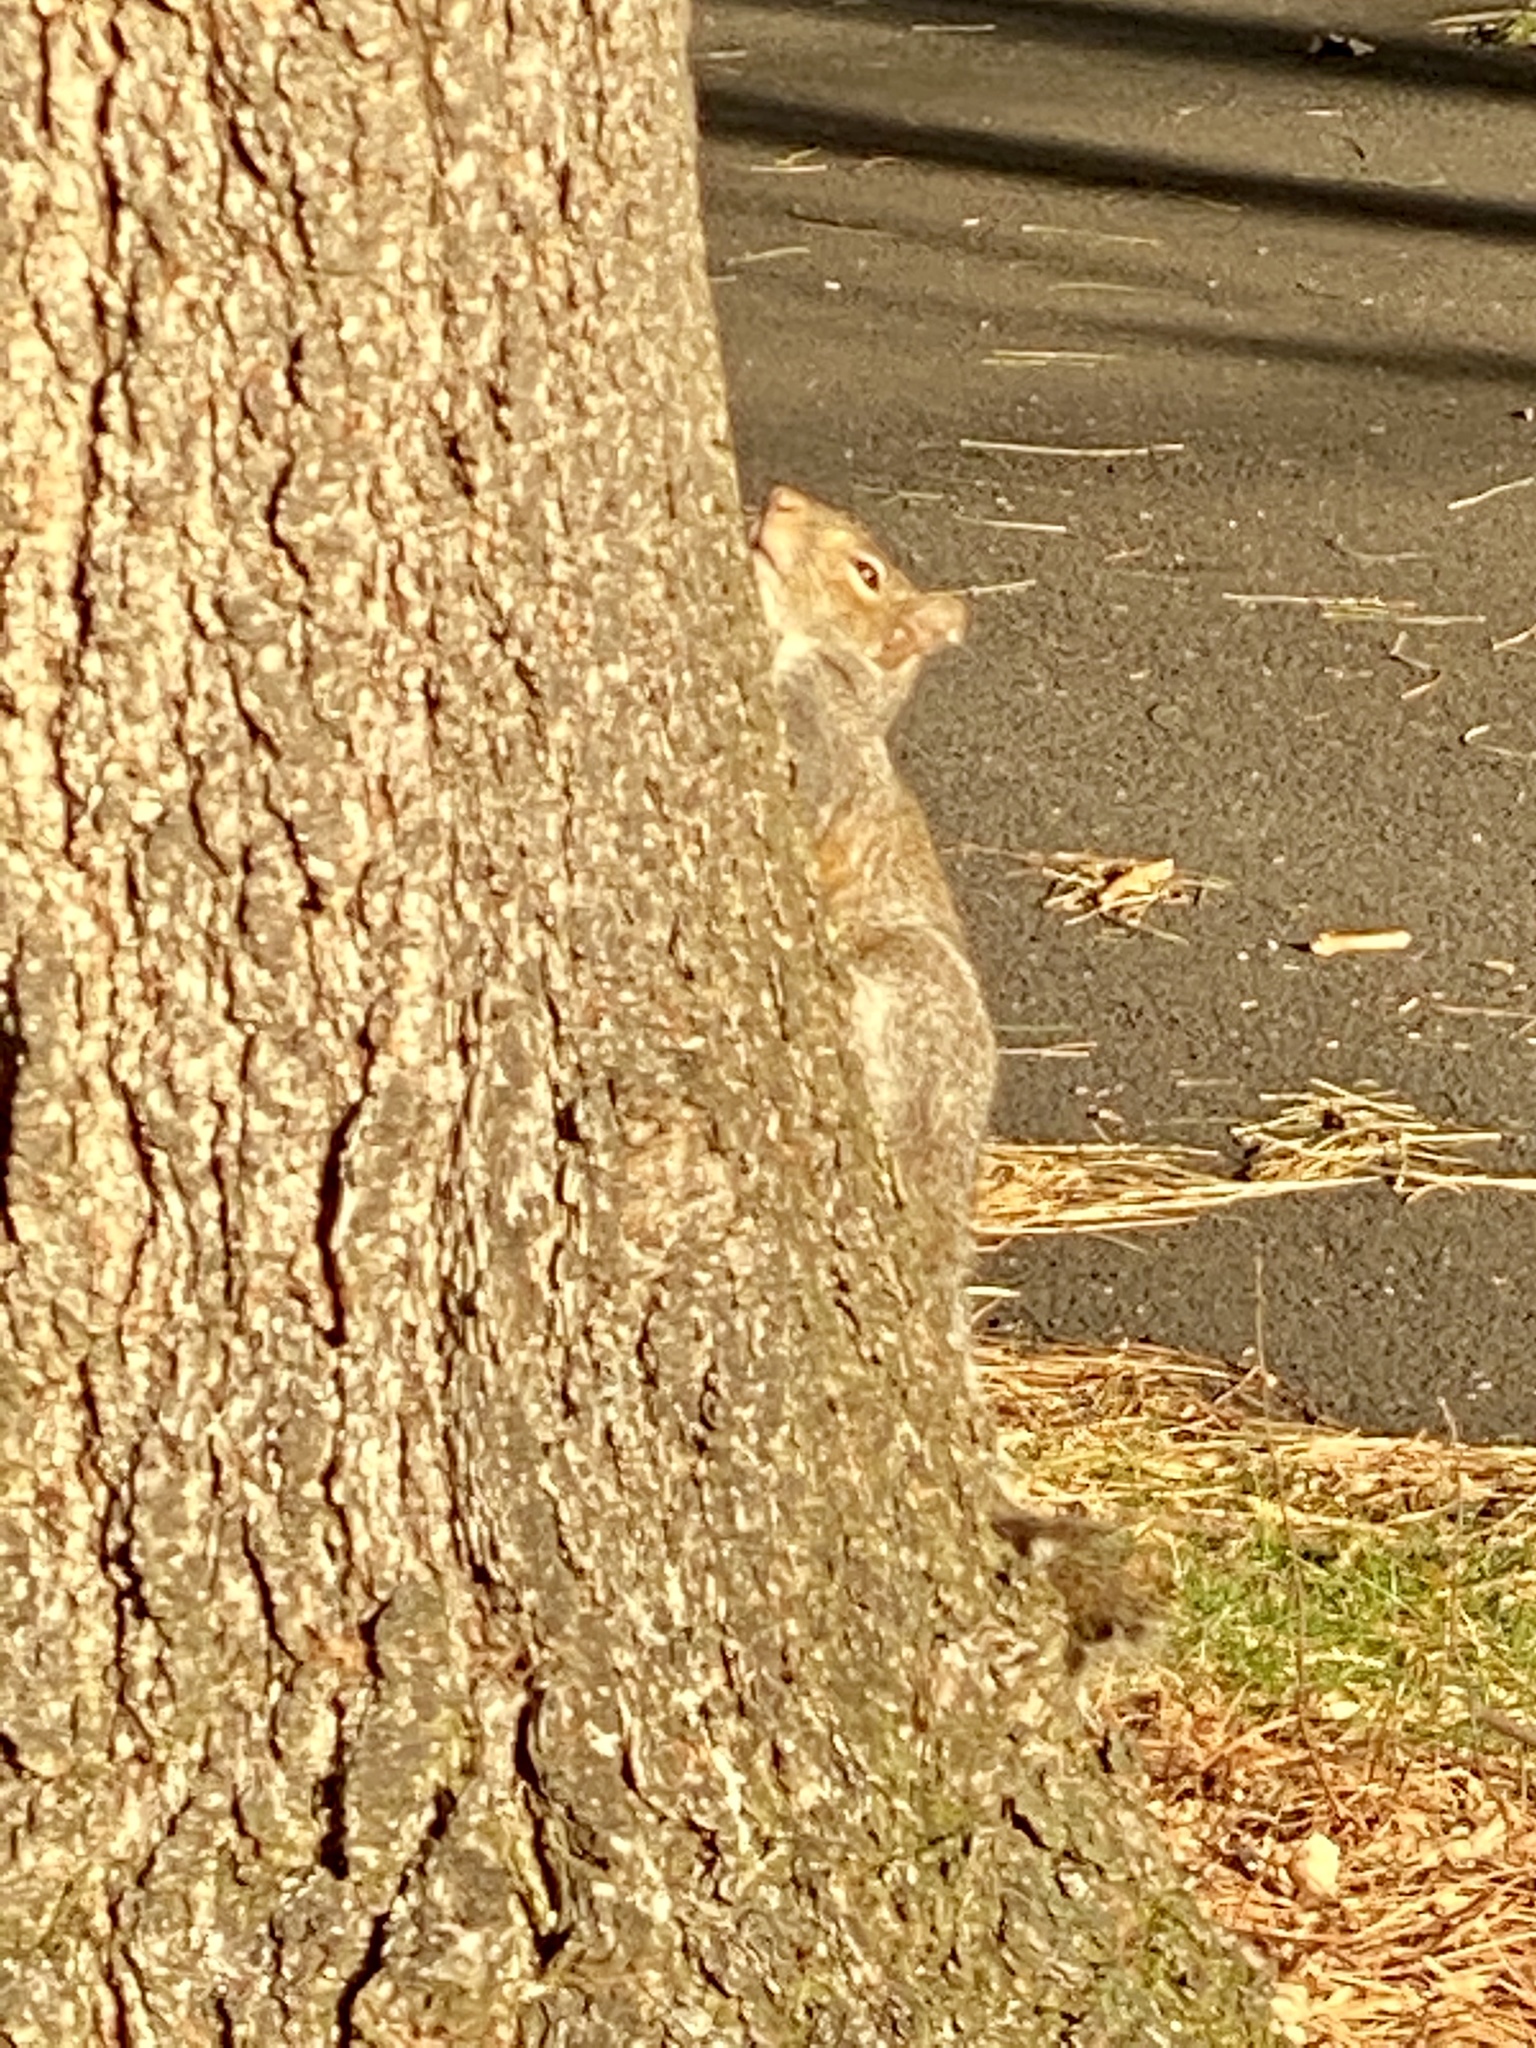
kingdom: Animalia
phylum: Chordata
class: Mammalia
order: Rodentia
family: Sciuridae
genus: Sciurus
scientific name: Sciurus carolinensis
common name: Eastern gray squirrel
